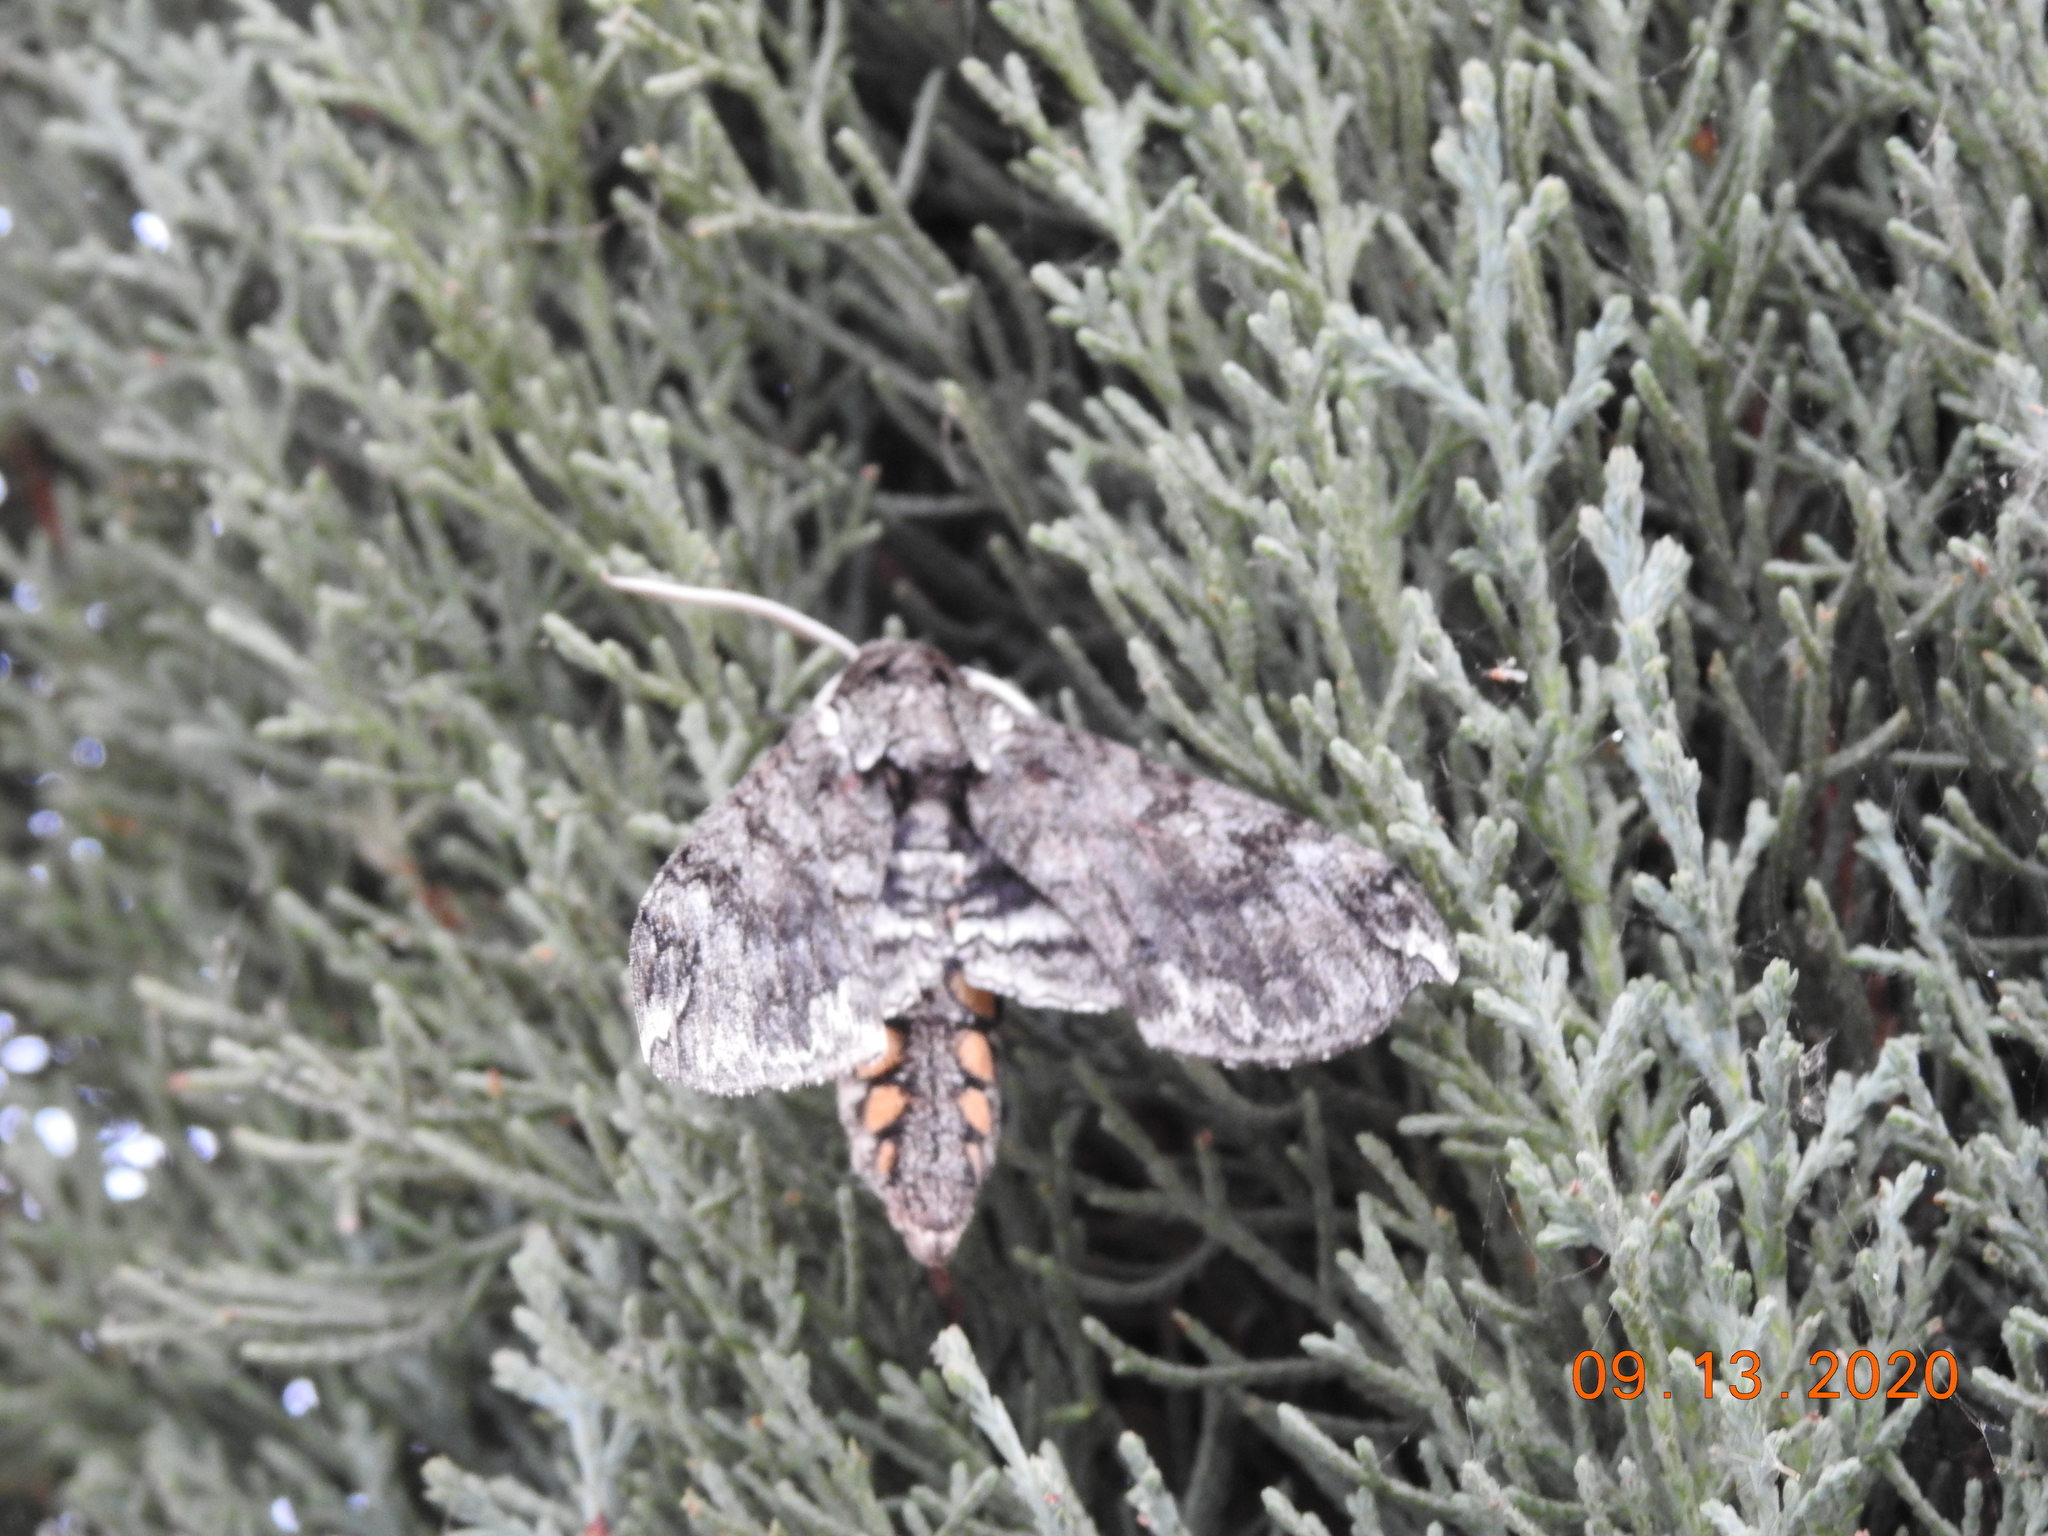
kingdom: Animalia
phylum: Arthropoda
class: Insecta
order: Lepidoptera
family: Sphingidae
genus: Manduca
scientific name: Manduca sexta
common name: Carolina sphinx
